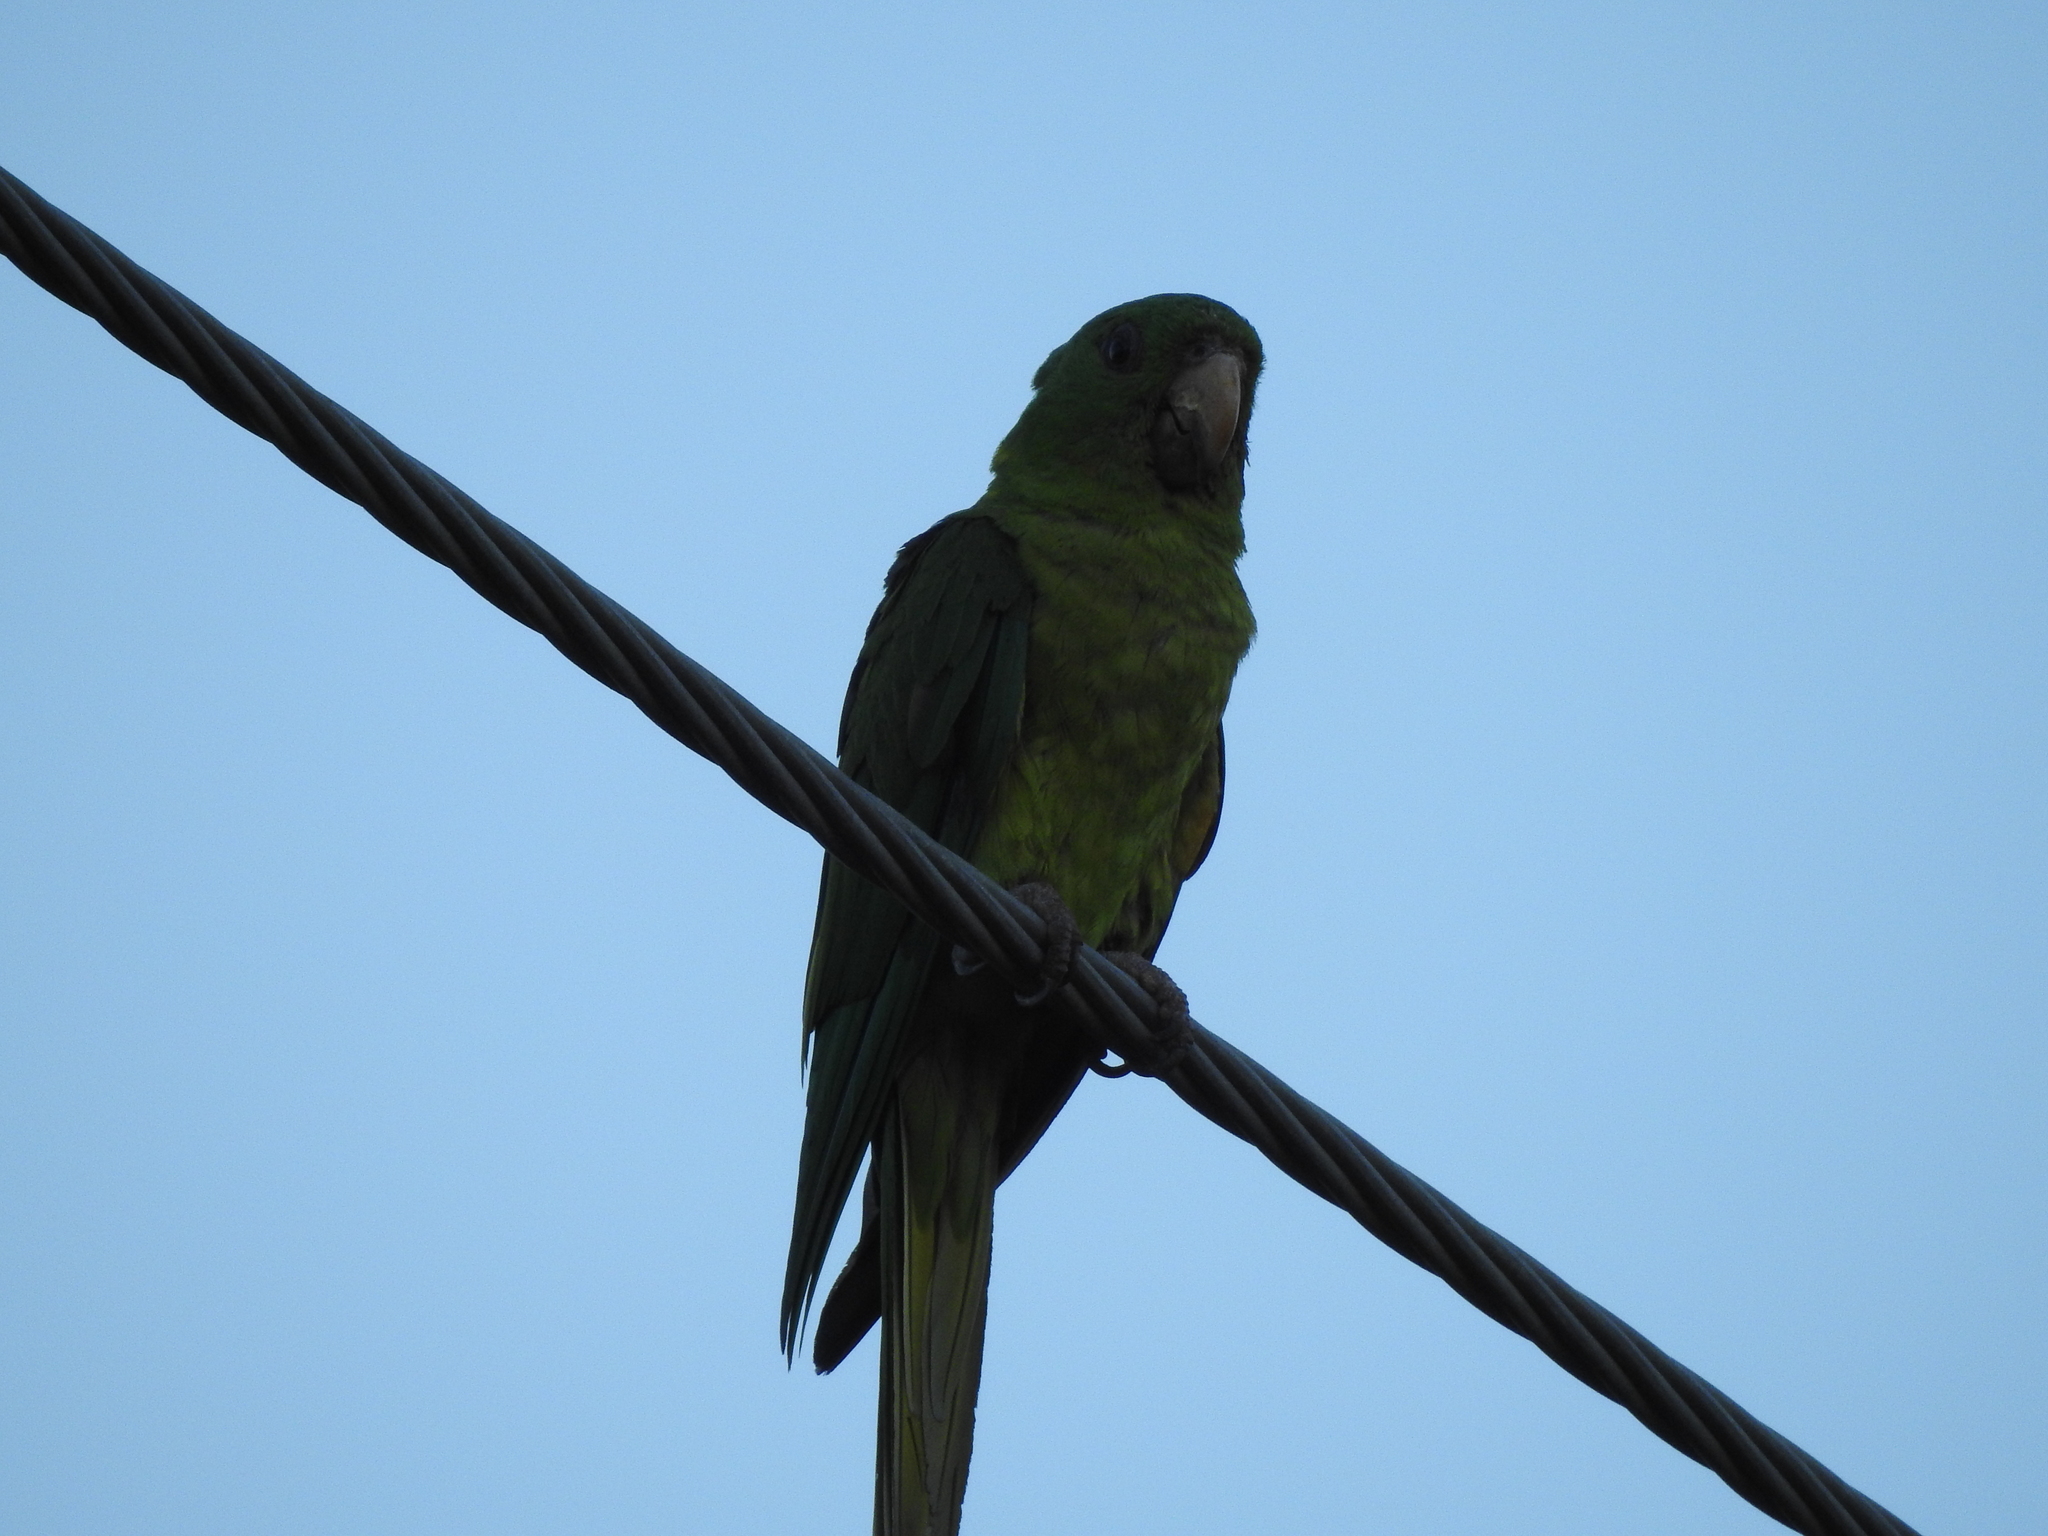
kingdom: Animalia
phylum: Chordata
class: Aves
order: Psittaciformes
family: Psittacidae
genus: Aratinga
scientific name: Aratinga holochlora
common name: Green parakeet
